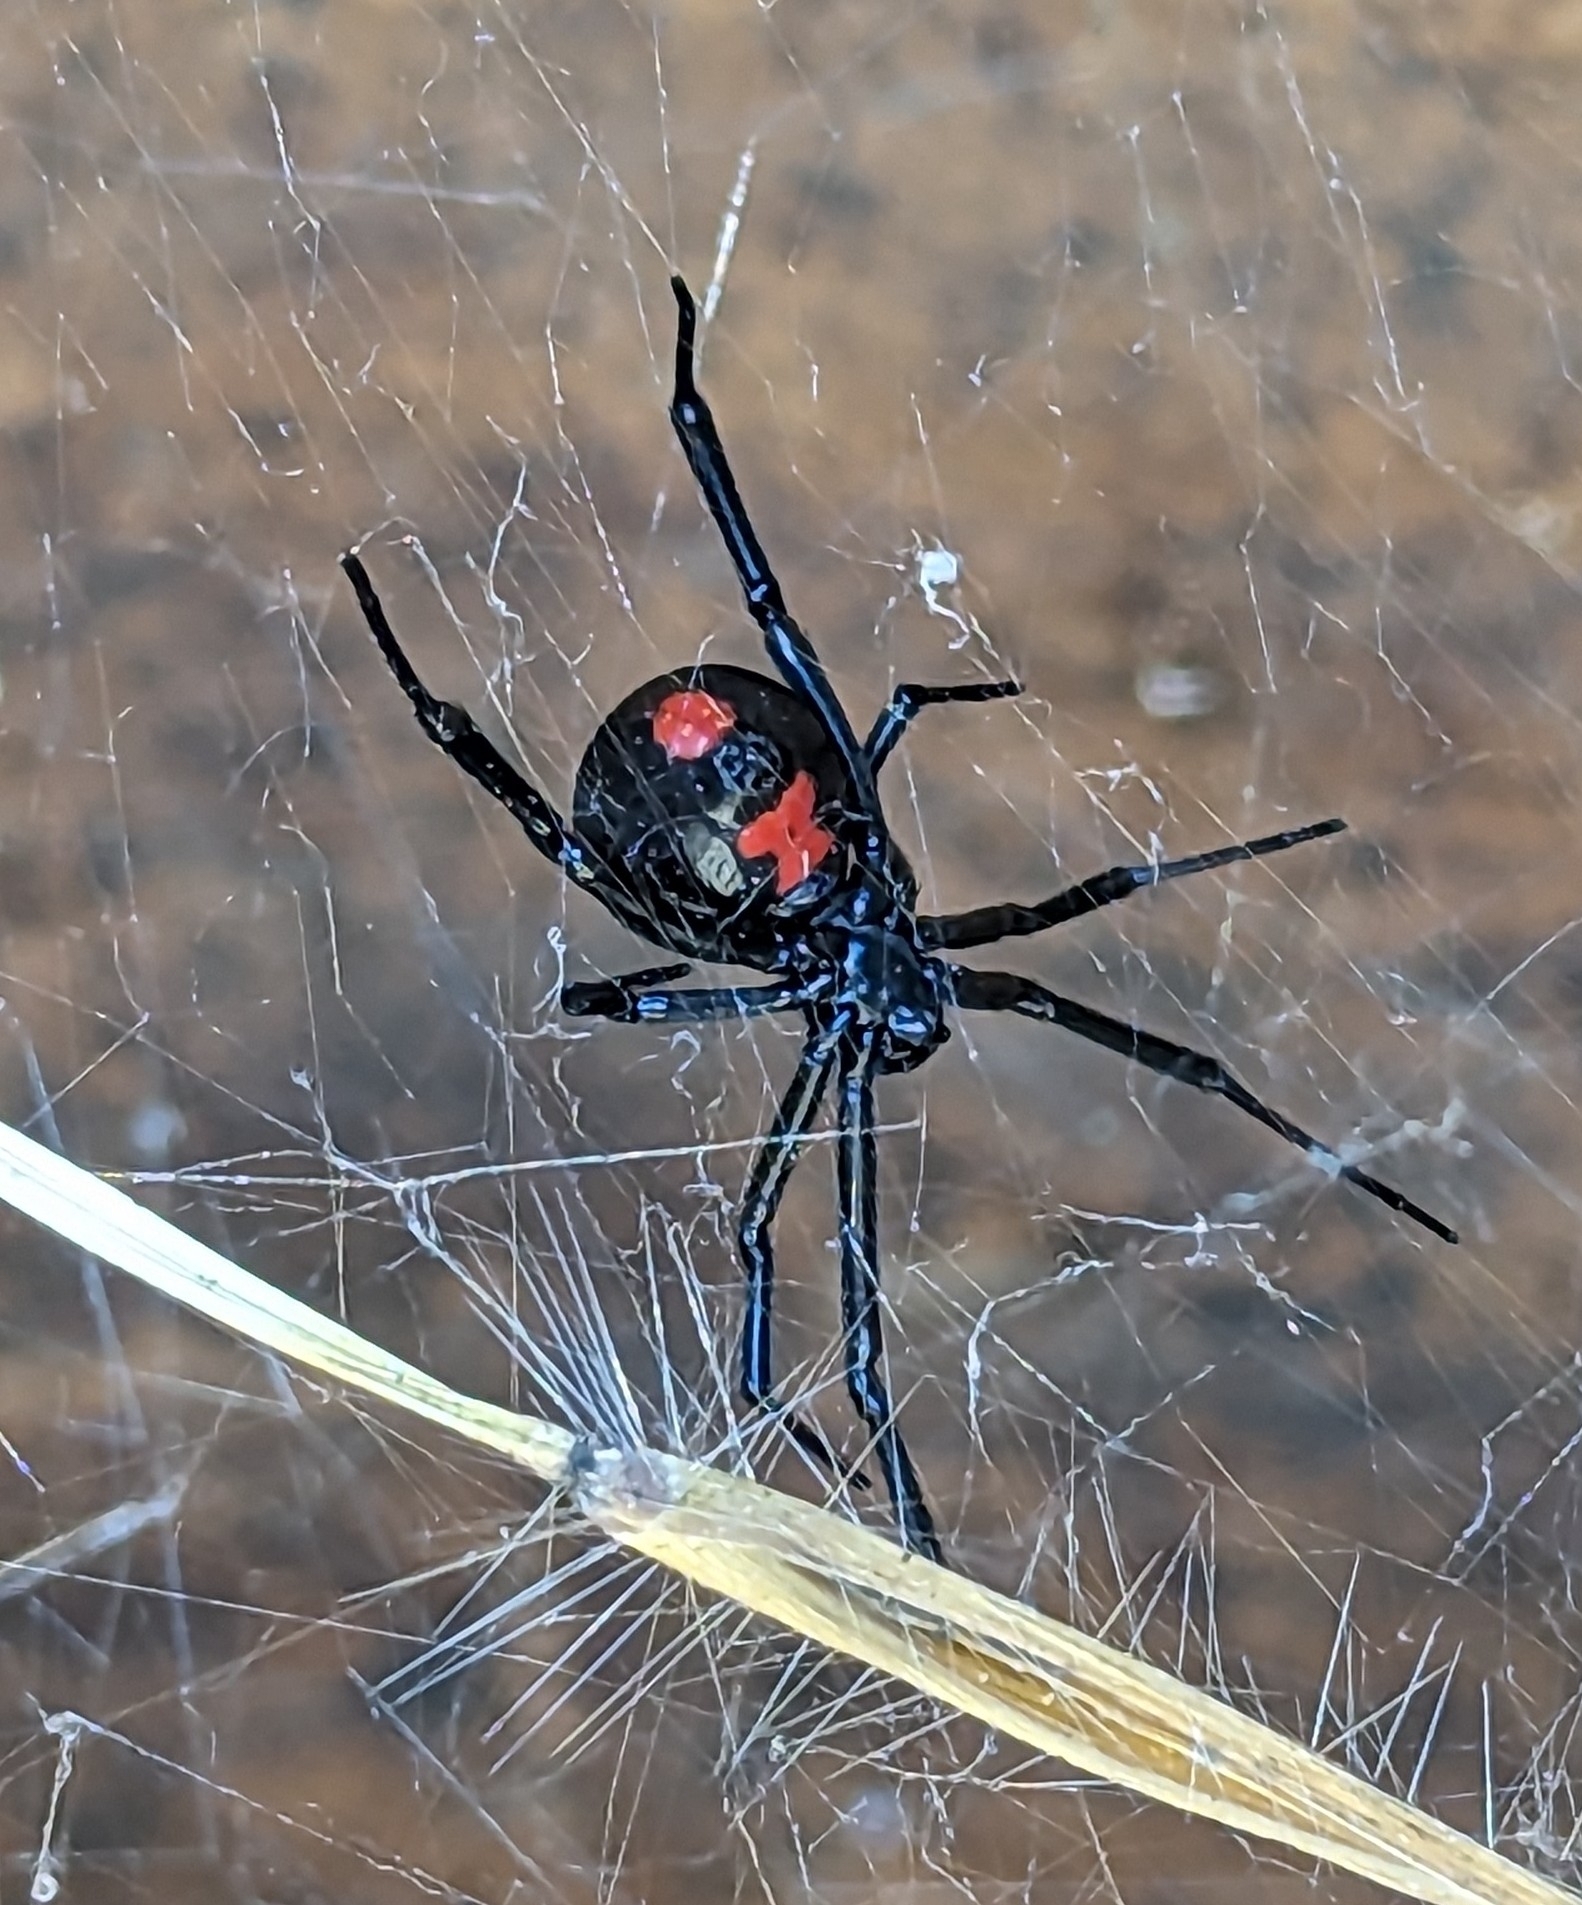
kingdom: Animalia
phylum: Arthropoda
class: Arachnida
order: Araneae
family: Theridiidae
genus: Latrodectus
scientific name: Latrodectus mactans
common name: Cobweb spiders
